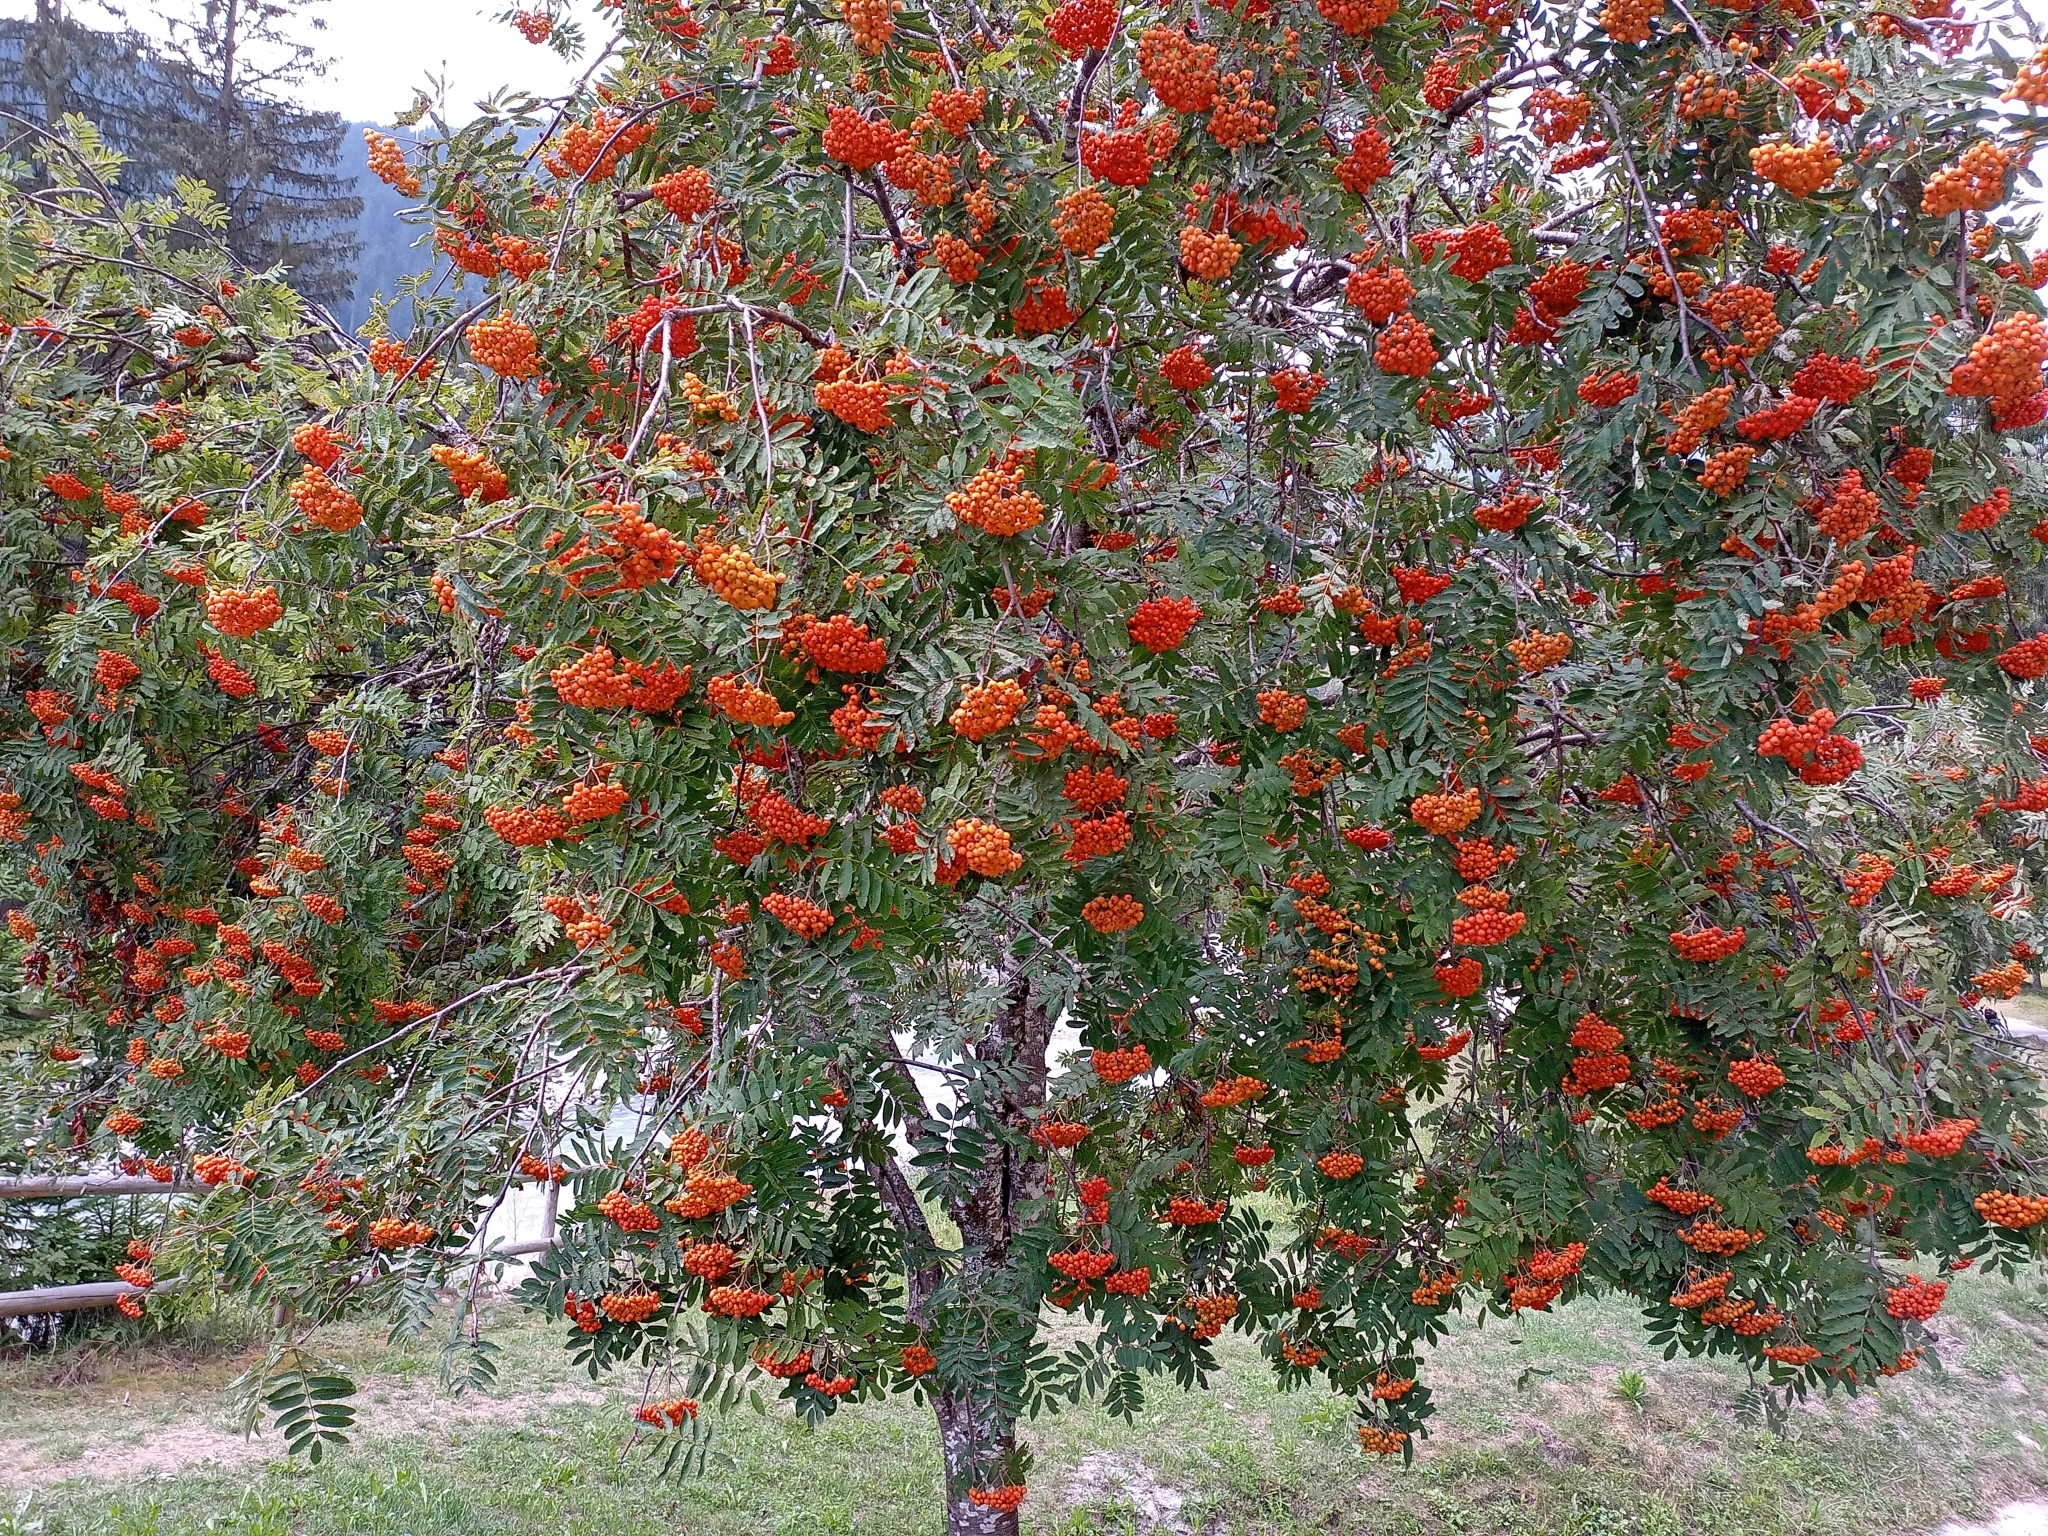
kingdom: Plantae
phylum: Tracheophyta
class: Magnoliopsida
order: Rosales
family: Rosaceae
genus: Sorbus
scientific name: Sorbus aucuparia
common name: Rowan
